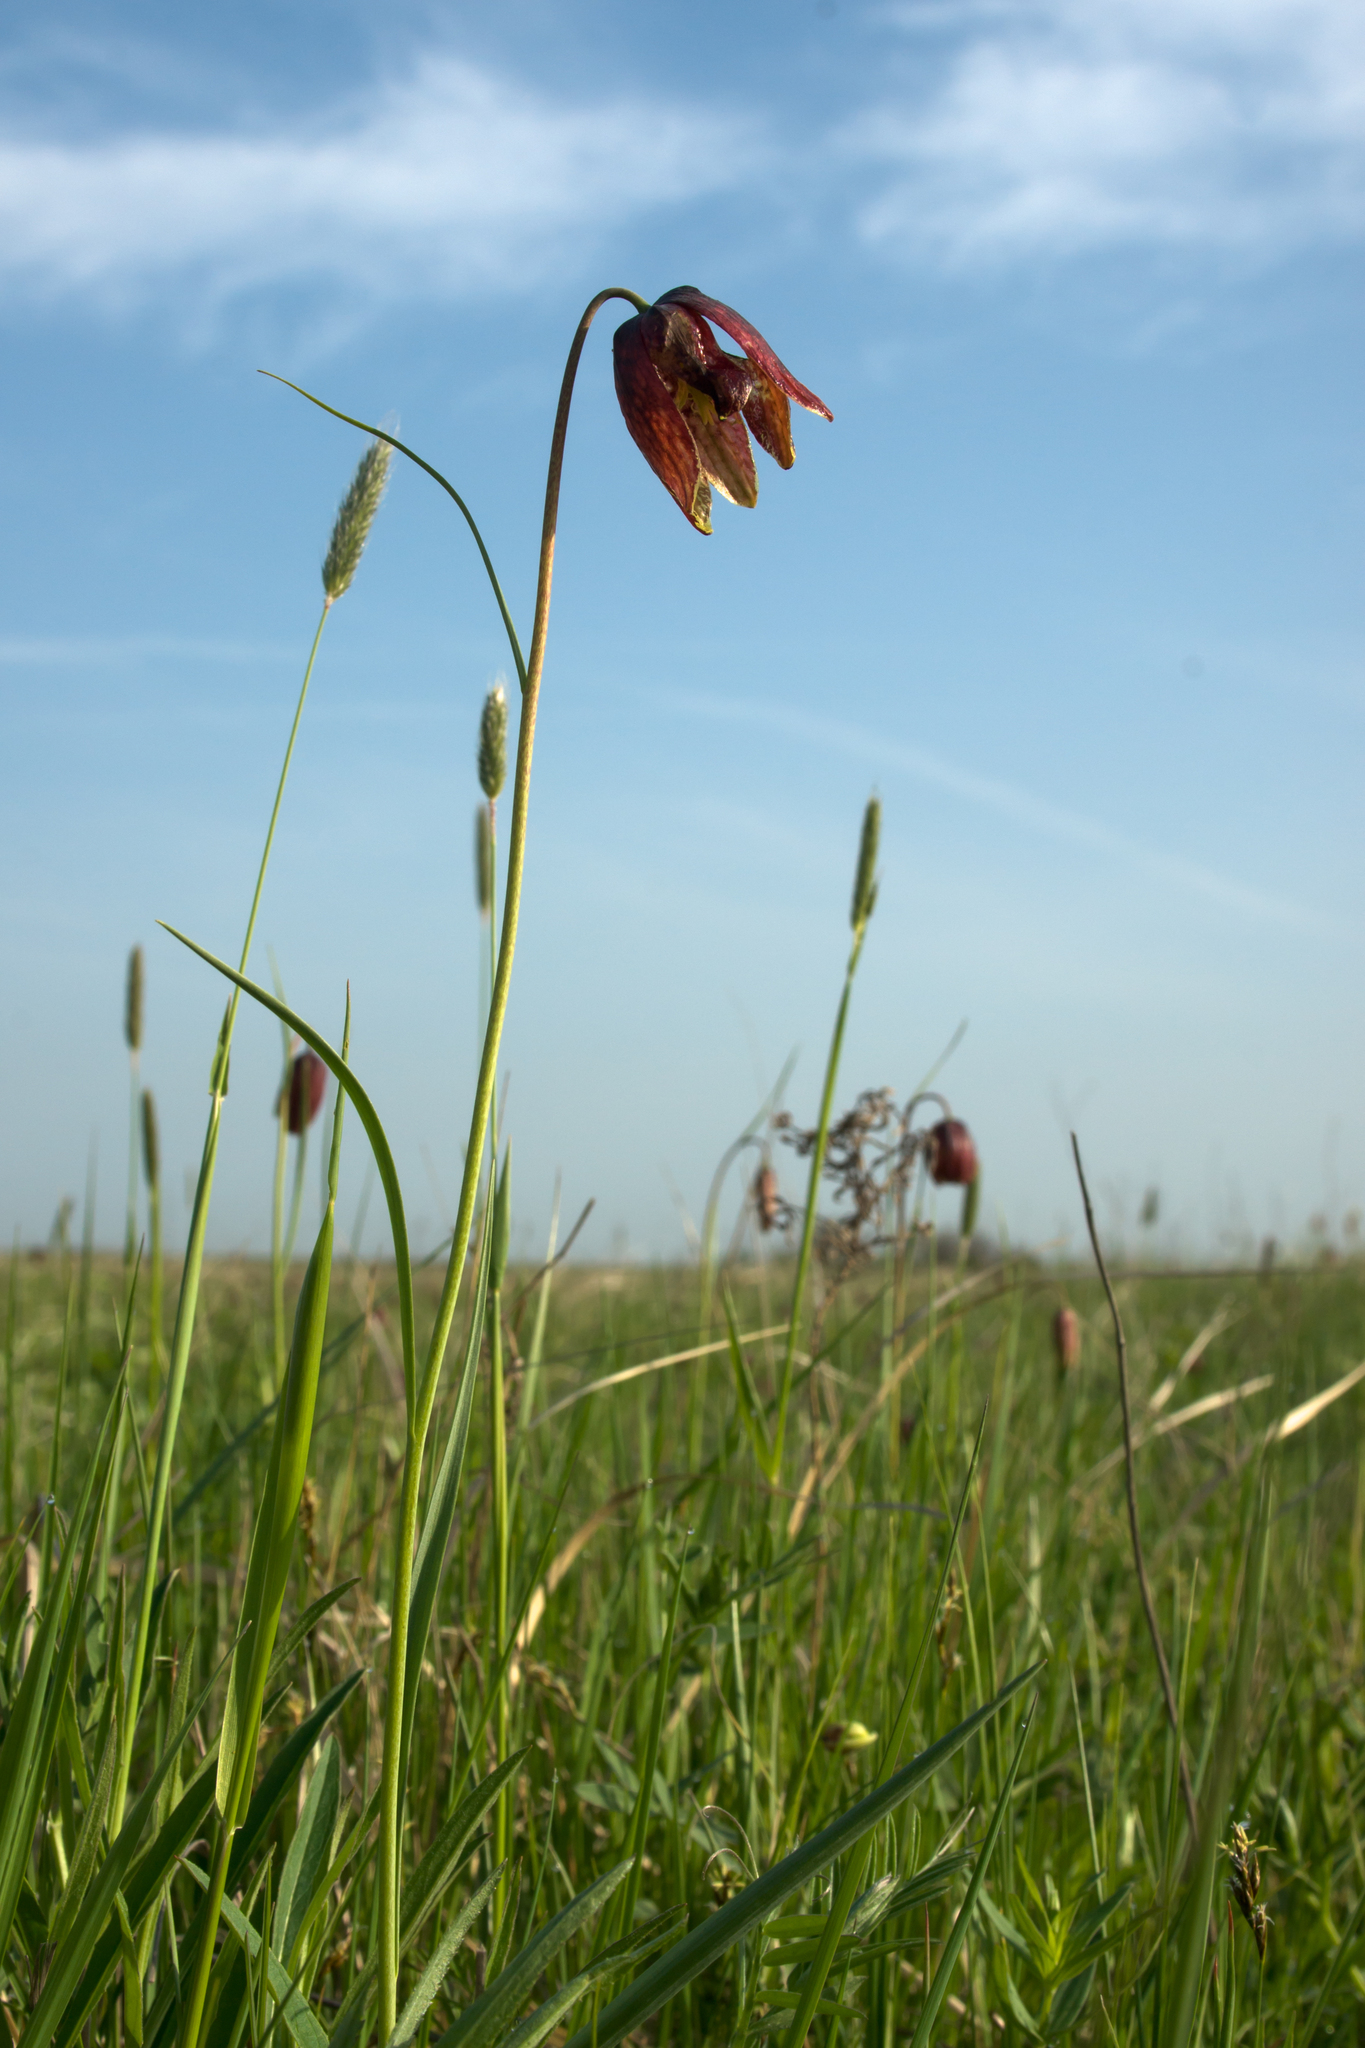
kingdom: Plantae
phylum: Tracheophyta
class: Liliopsida
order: Liliales
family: Liliaceae
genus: Fritillaria
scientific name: Fritillaria meleagroides
